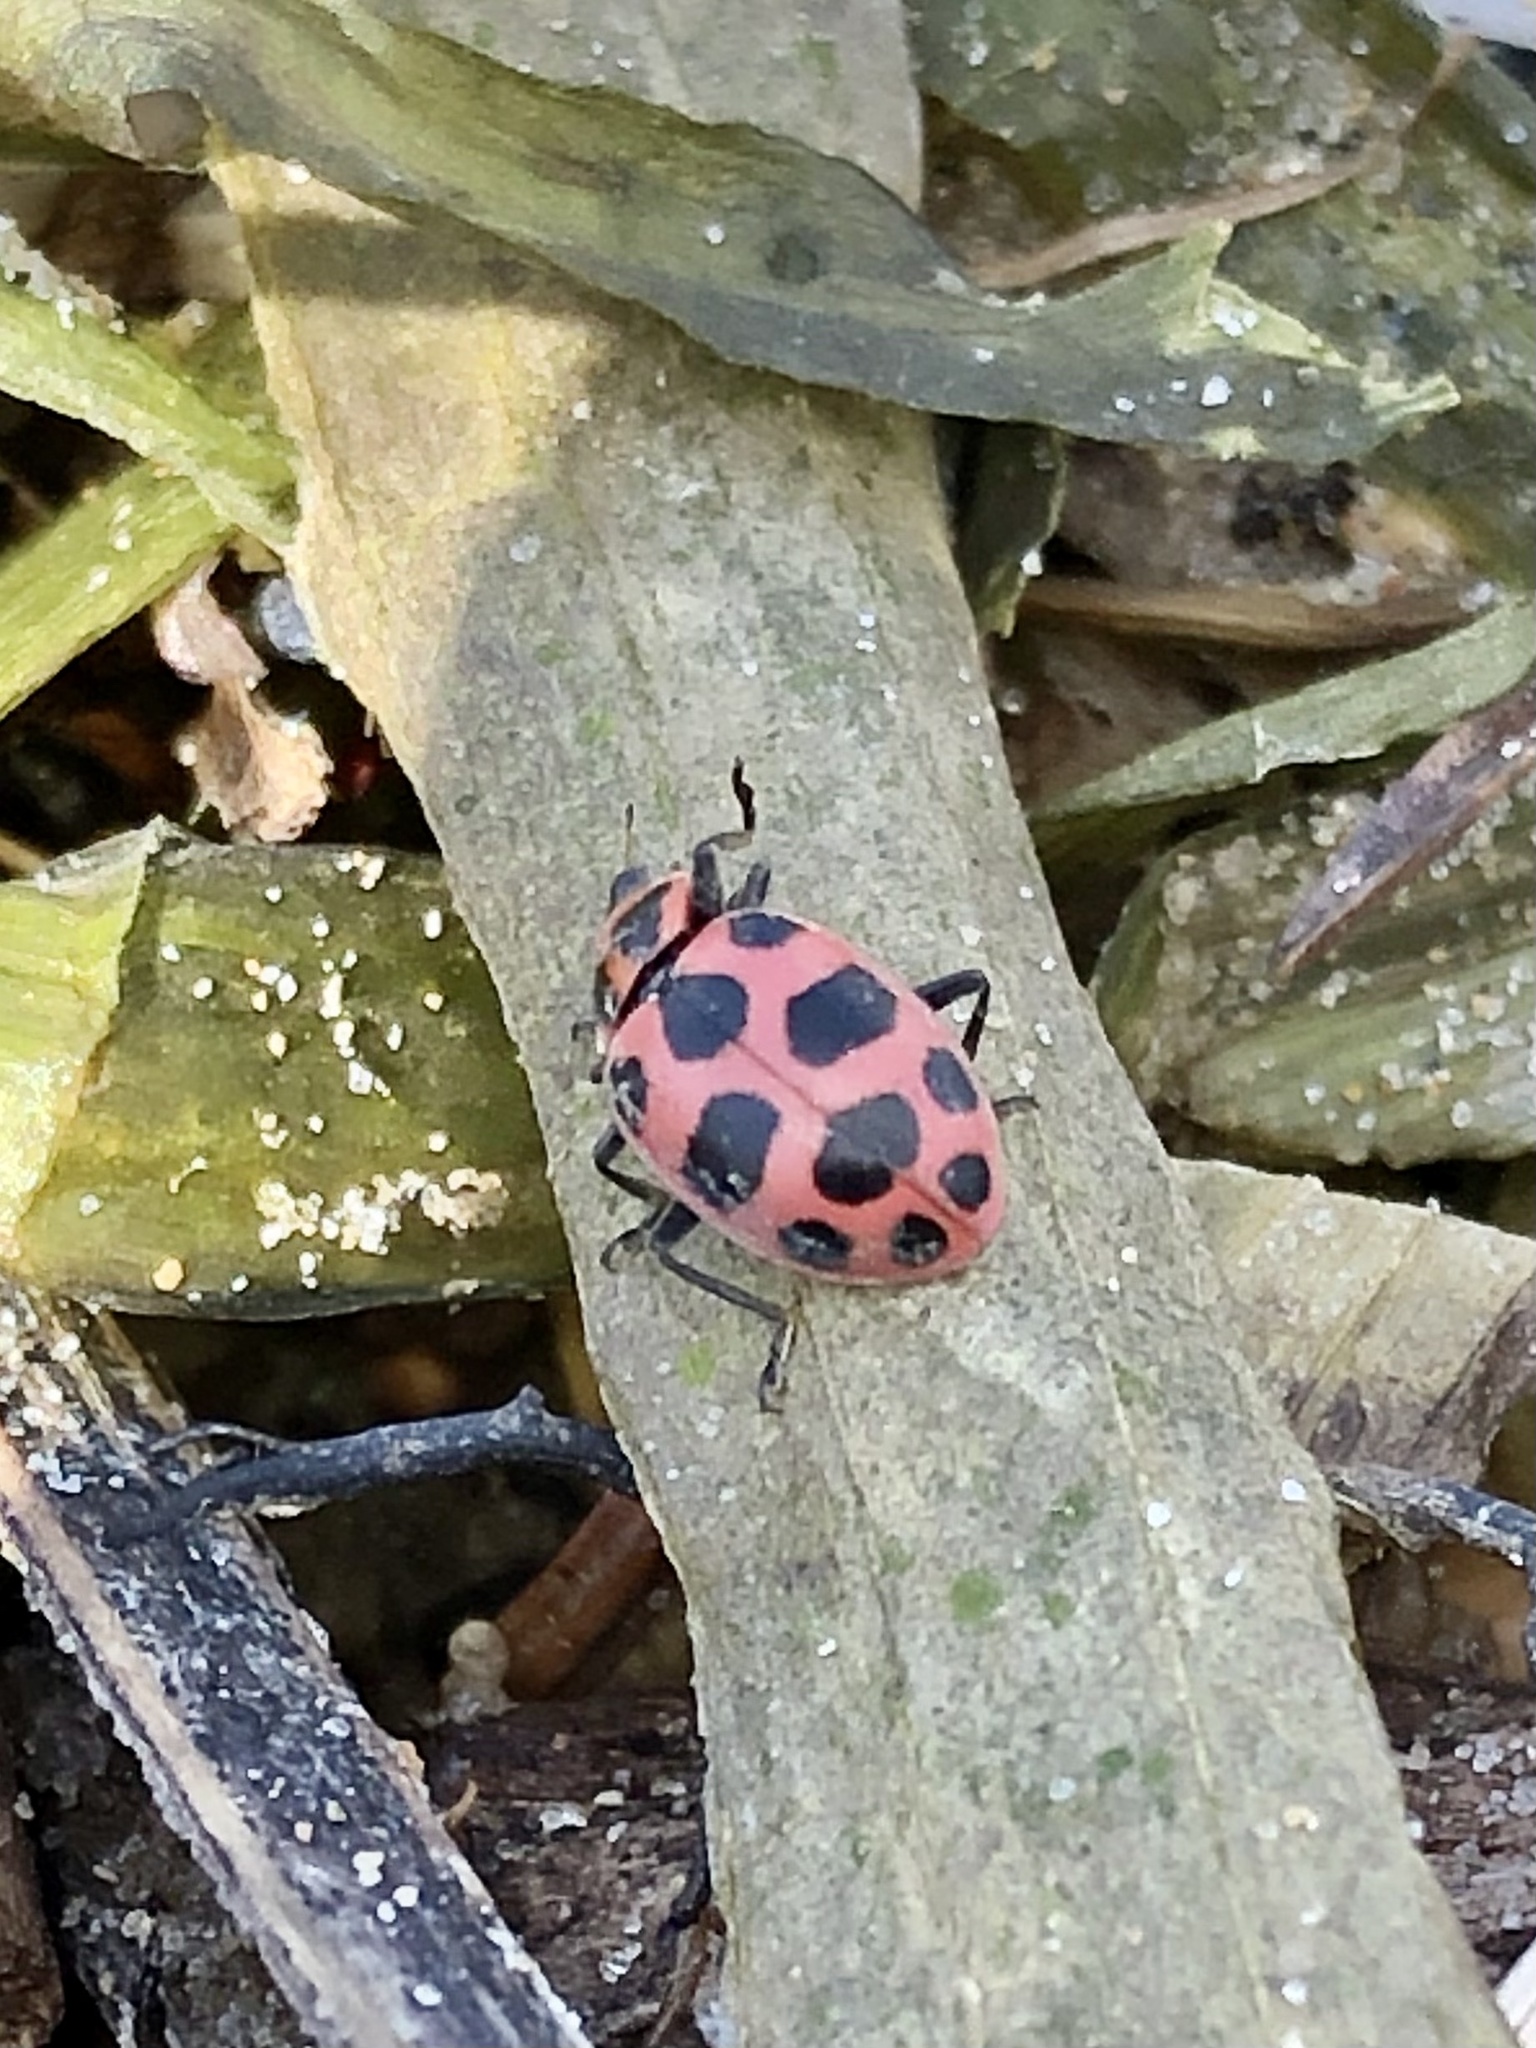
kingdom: Animalia
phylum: Arthropoda
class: Insecta
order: Coleoptera
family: Coccinellidae
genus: Coleomegilla
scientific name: Coleomegilla maculata
